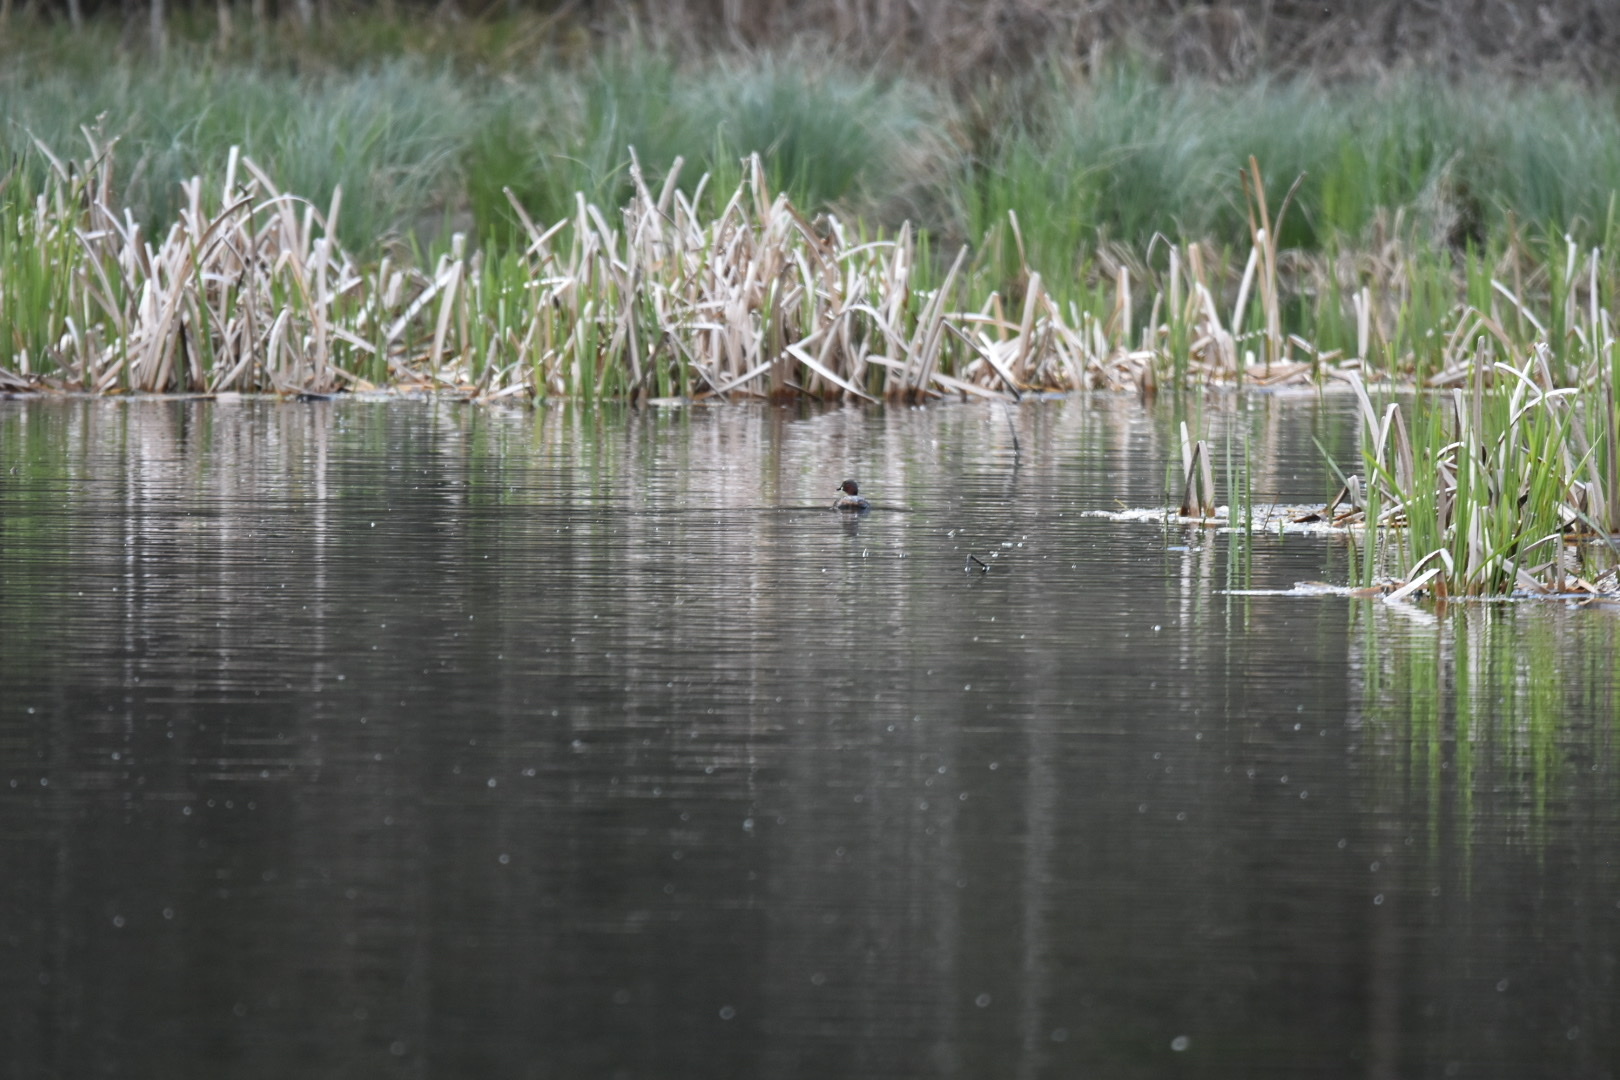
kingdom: Animalia
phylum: Chordata
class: Aves
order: Podicipediformes
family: Podicipedidae
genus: Tachybaptus
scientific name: Tachybaptus ruficollis
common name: Little grebe
